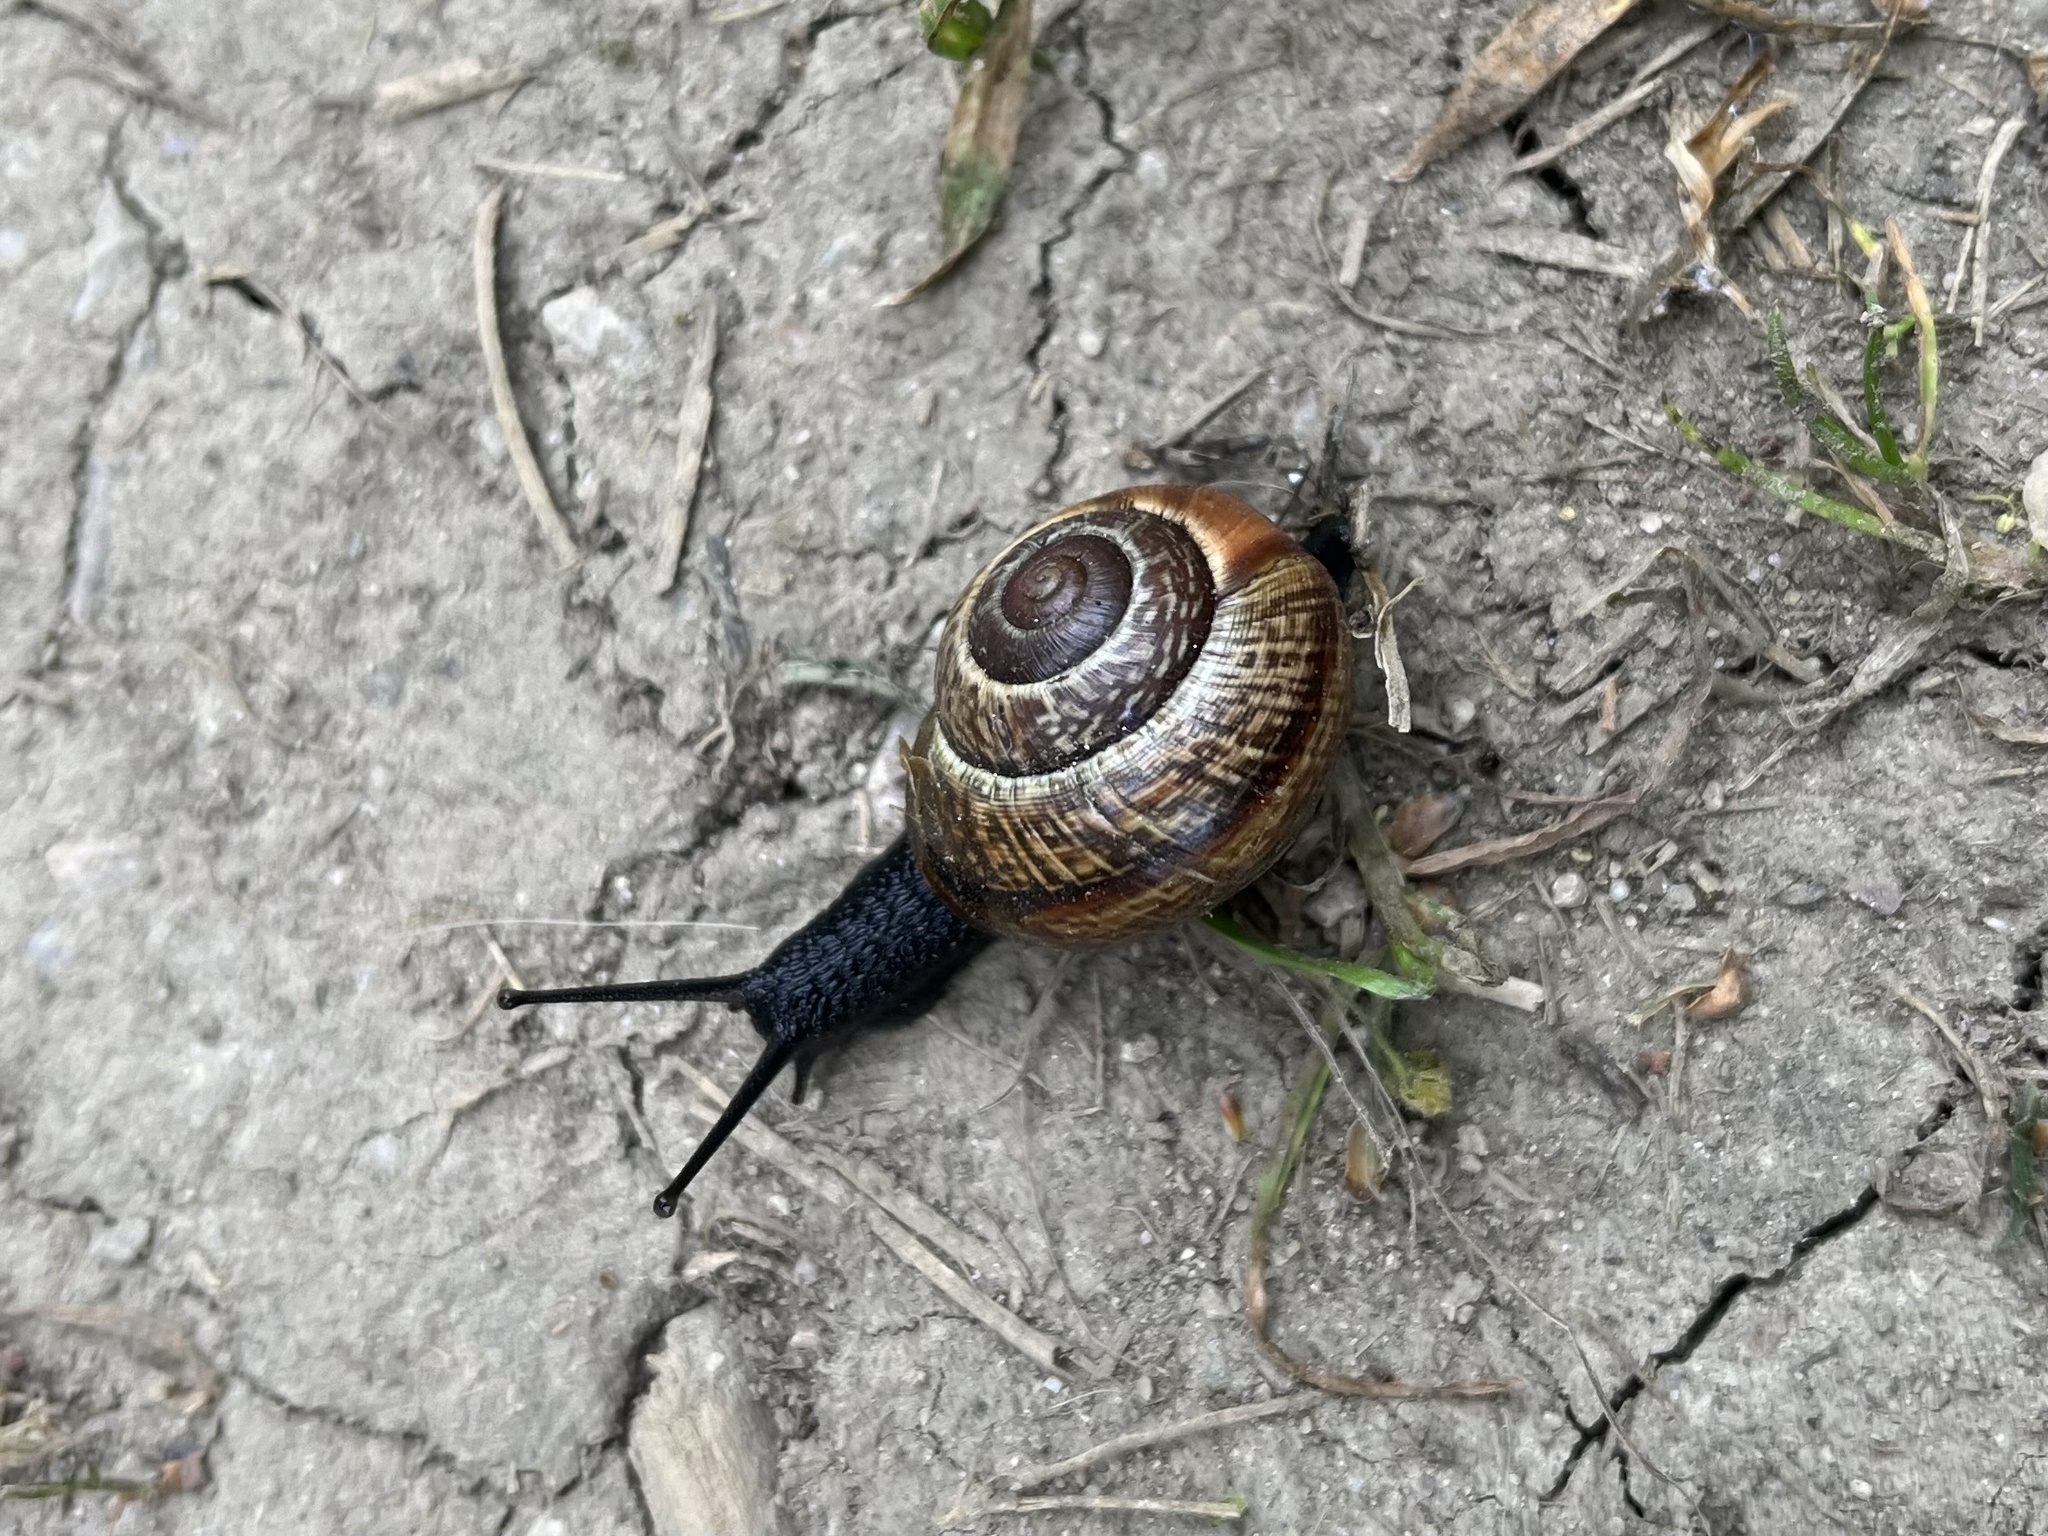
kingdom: Animalia
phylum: Mollusca
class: Gastropoda
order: Stylommatophora
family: Helicidae
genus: Arianta
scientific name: Arianta arbustorum
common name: Copse snail
